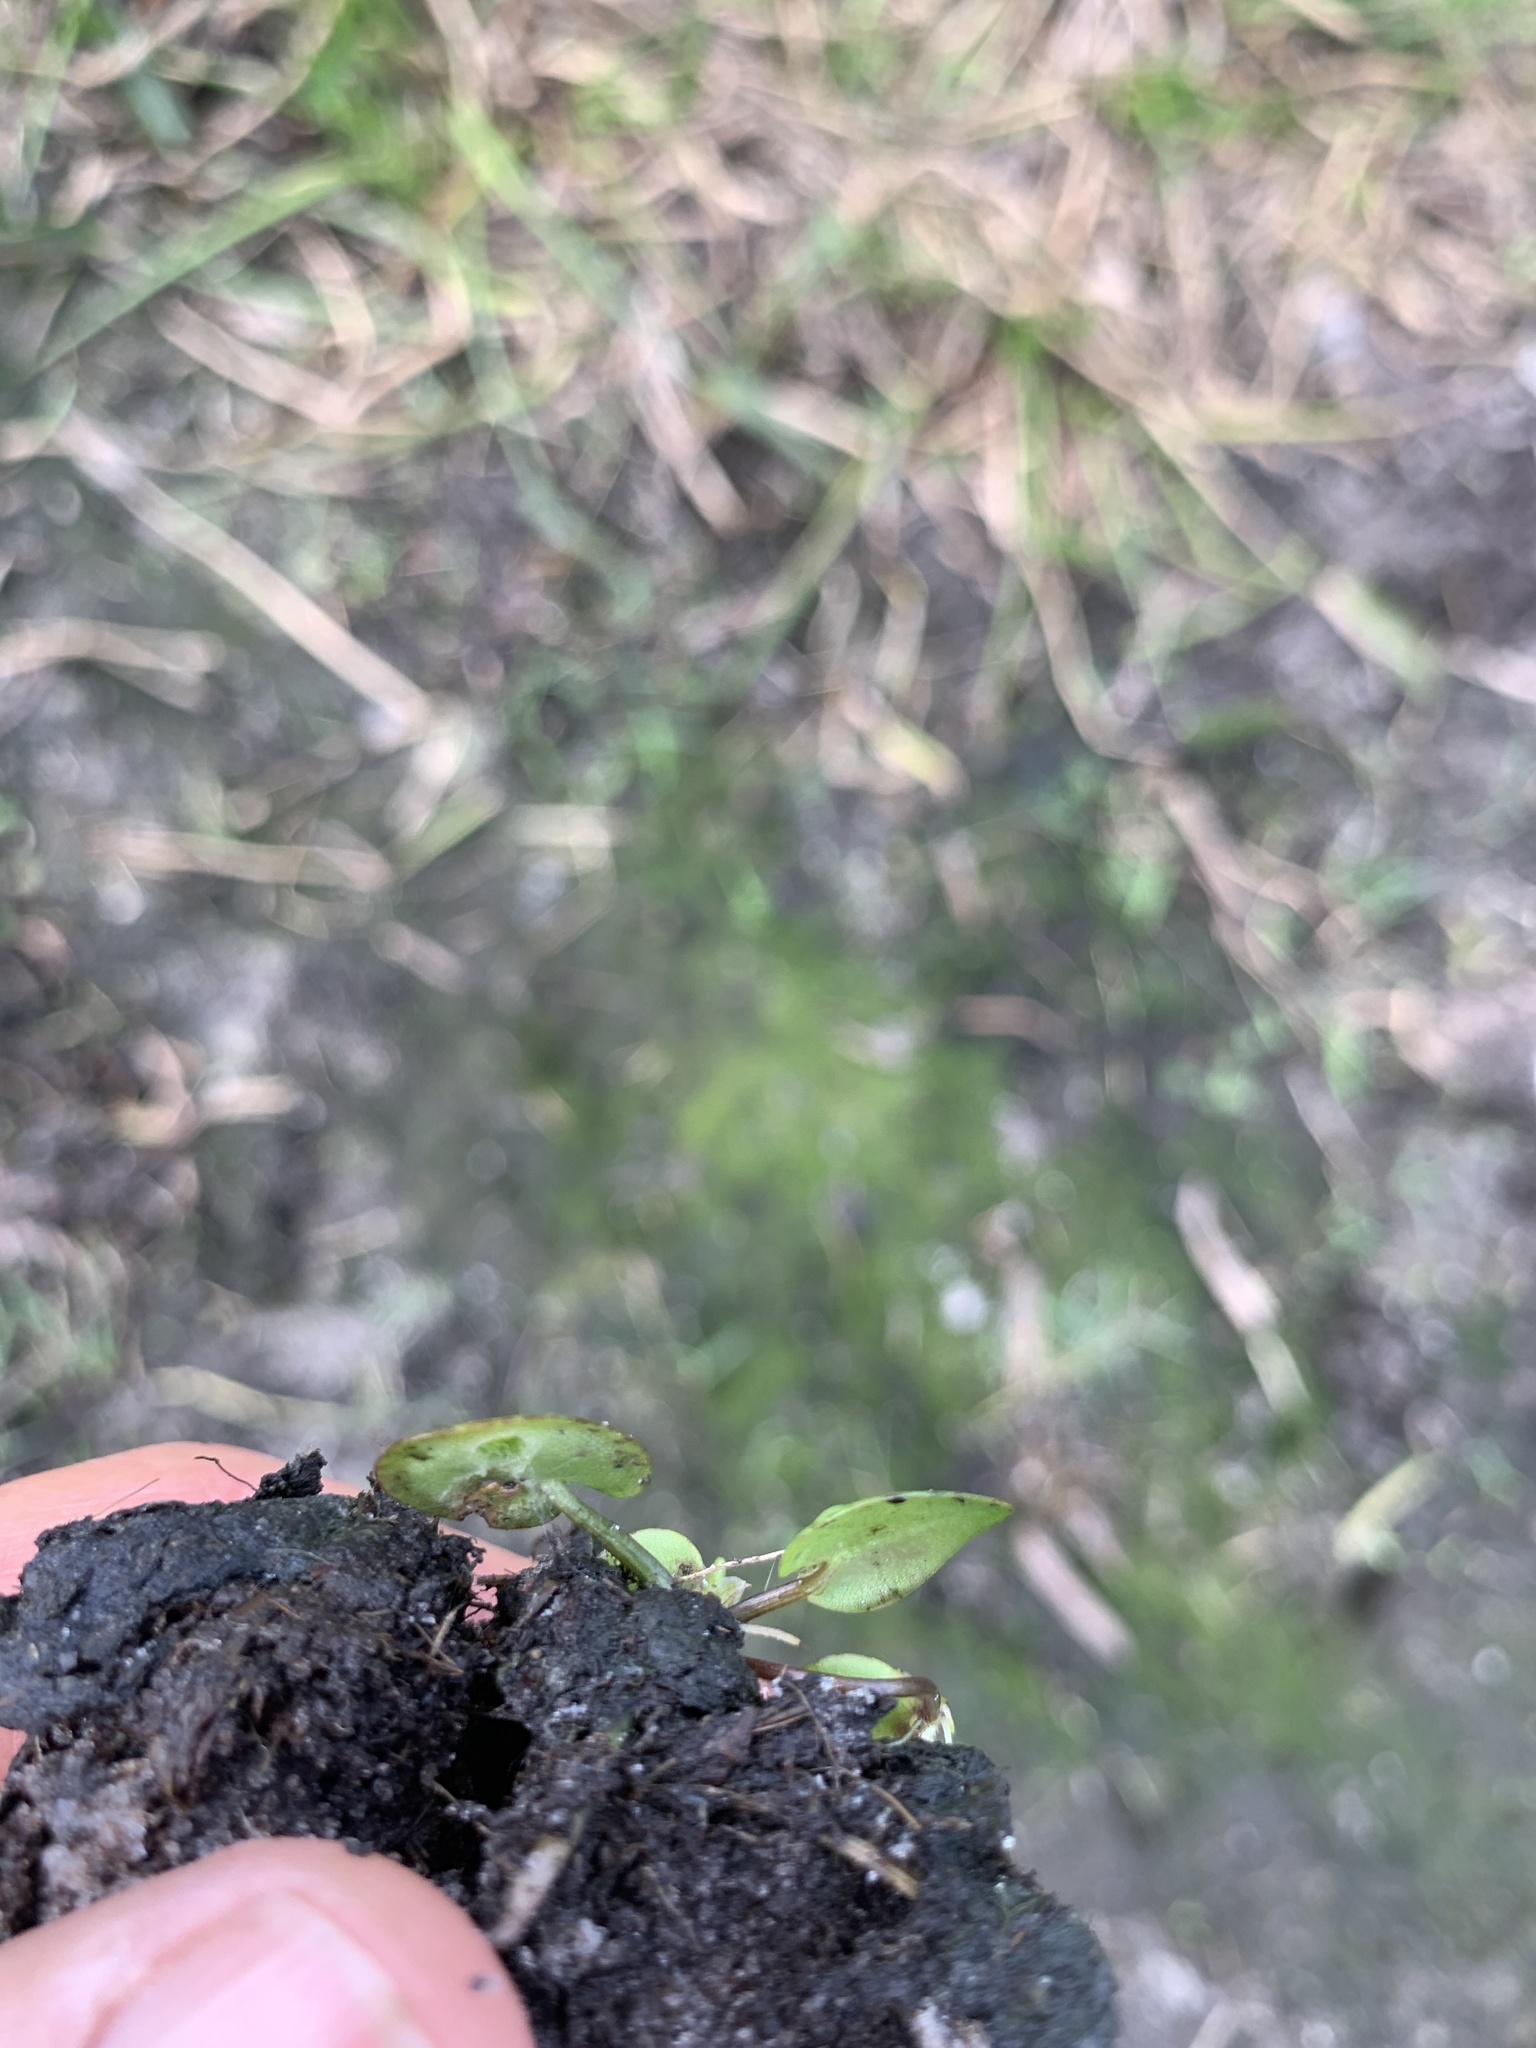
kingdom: Plantae
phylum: Tracheophyta
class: Liliopsida
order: Alismatales
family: Hydrocharitaceae
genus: Hydrocharis
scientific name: Hydrocharis spongia
